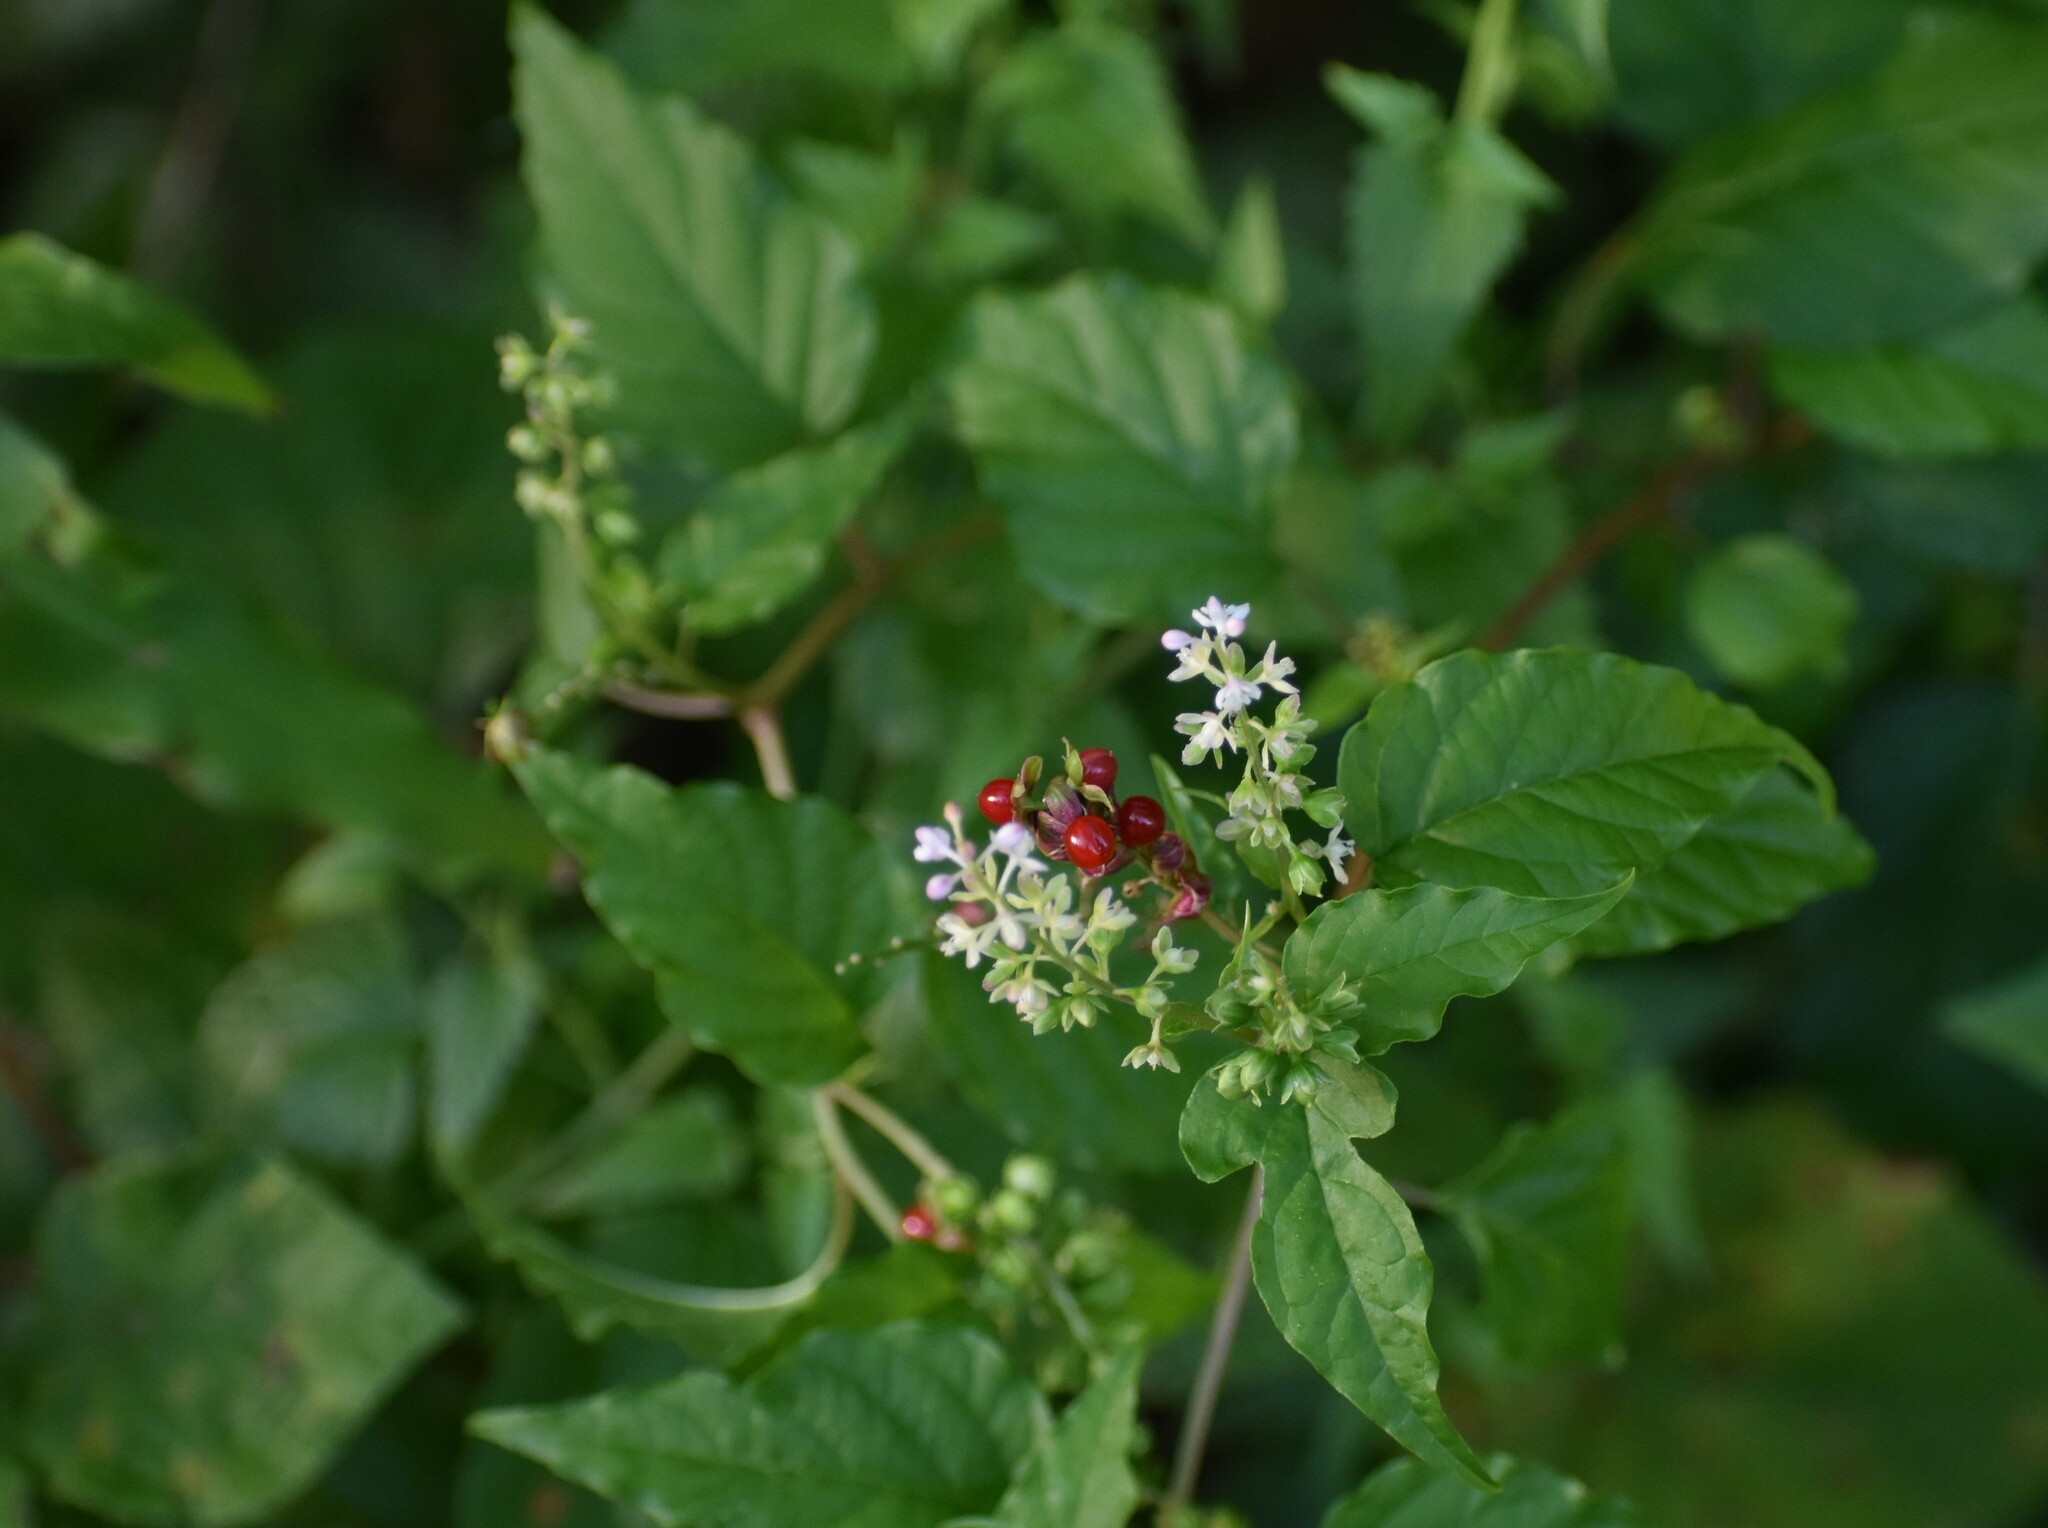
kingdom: Plantae
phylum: Tracheophyta
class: Magnoliopsida
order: Caryophyllales
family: Phytolaccaceae
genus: Rivina
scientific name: Rivina humilis
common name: Rougeplant
